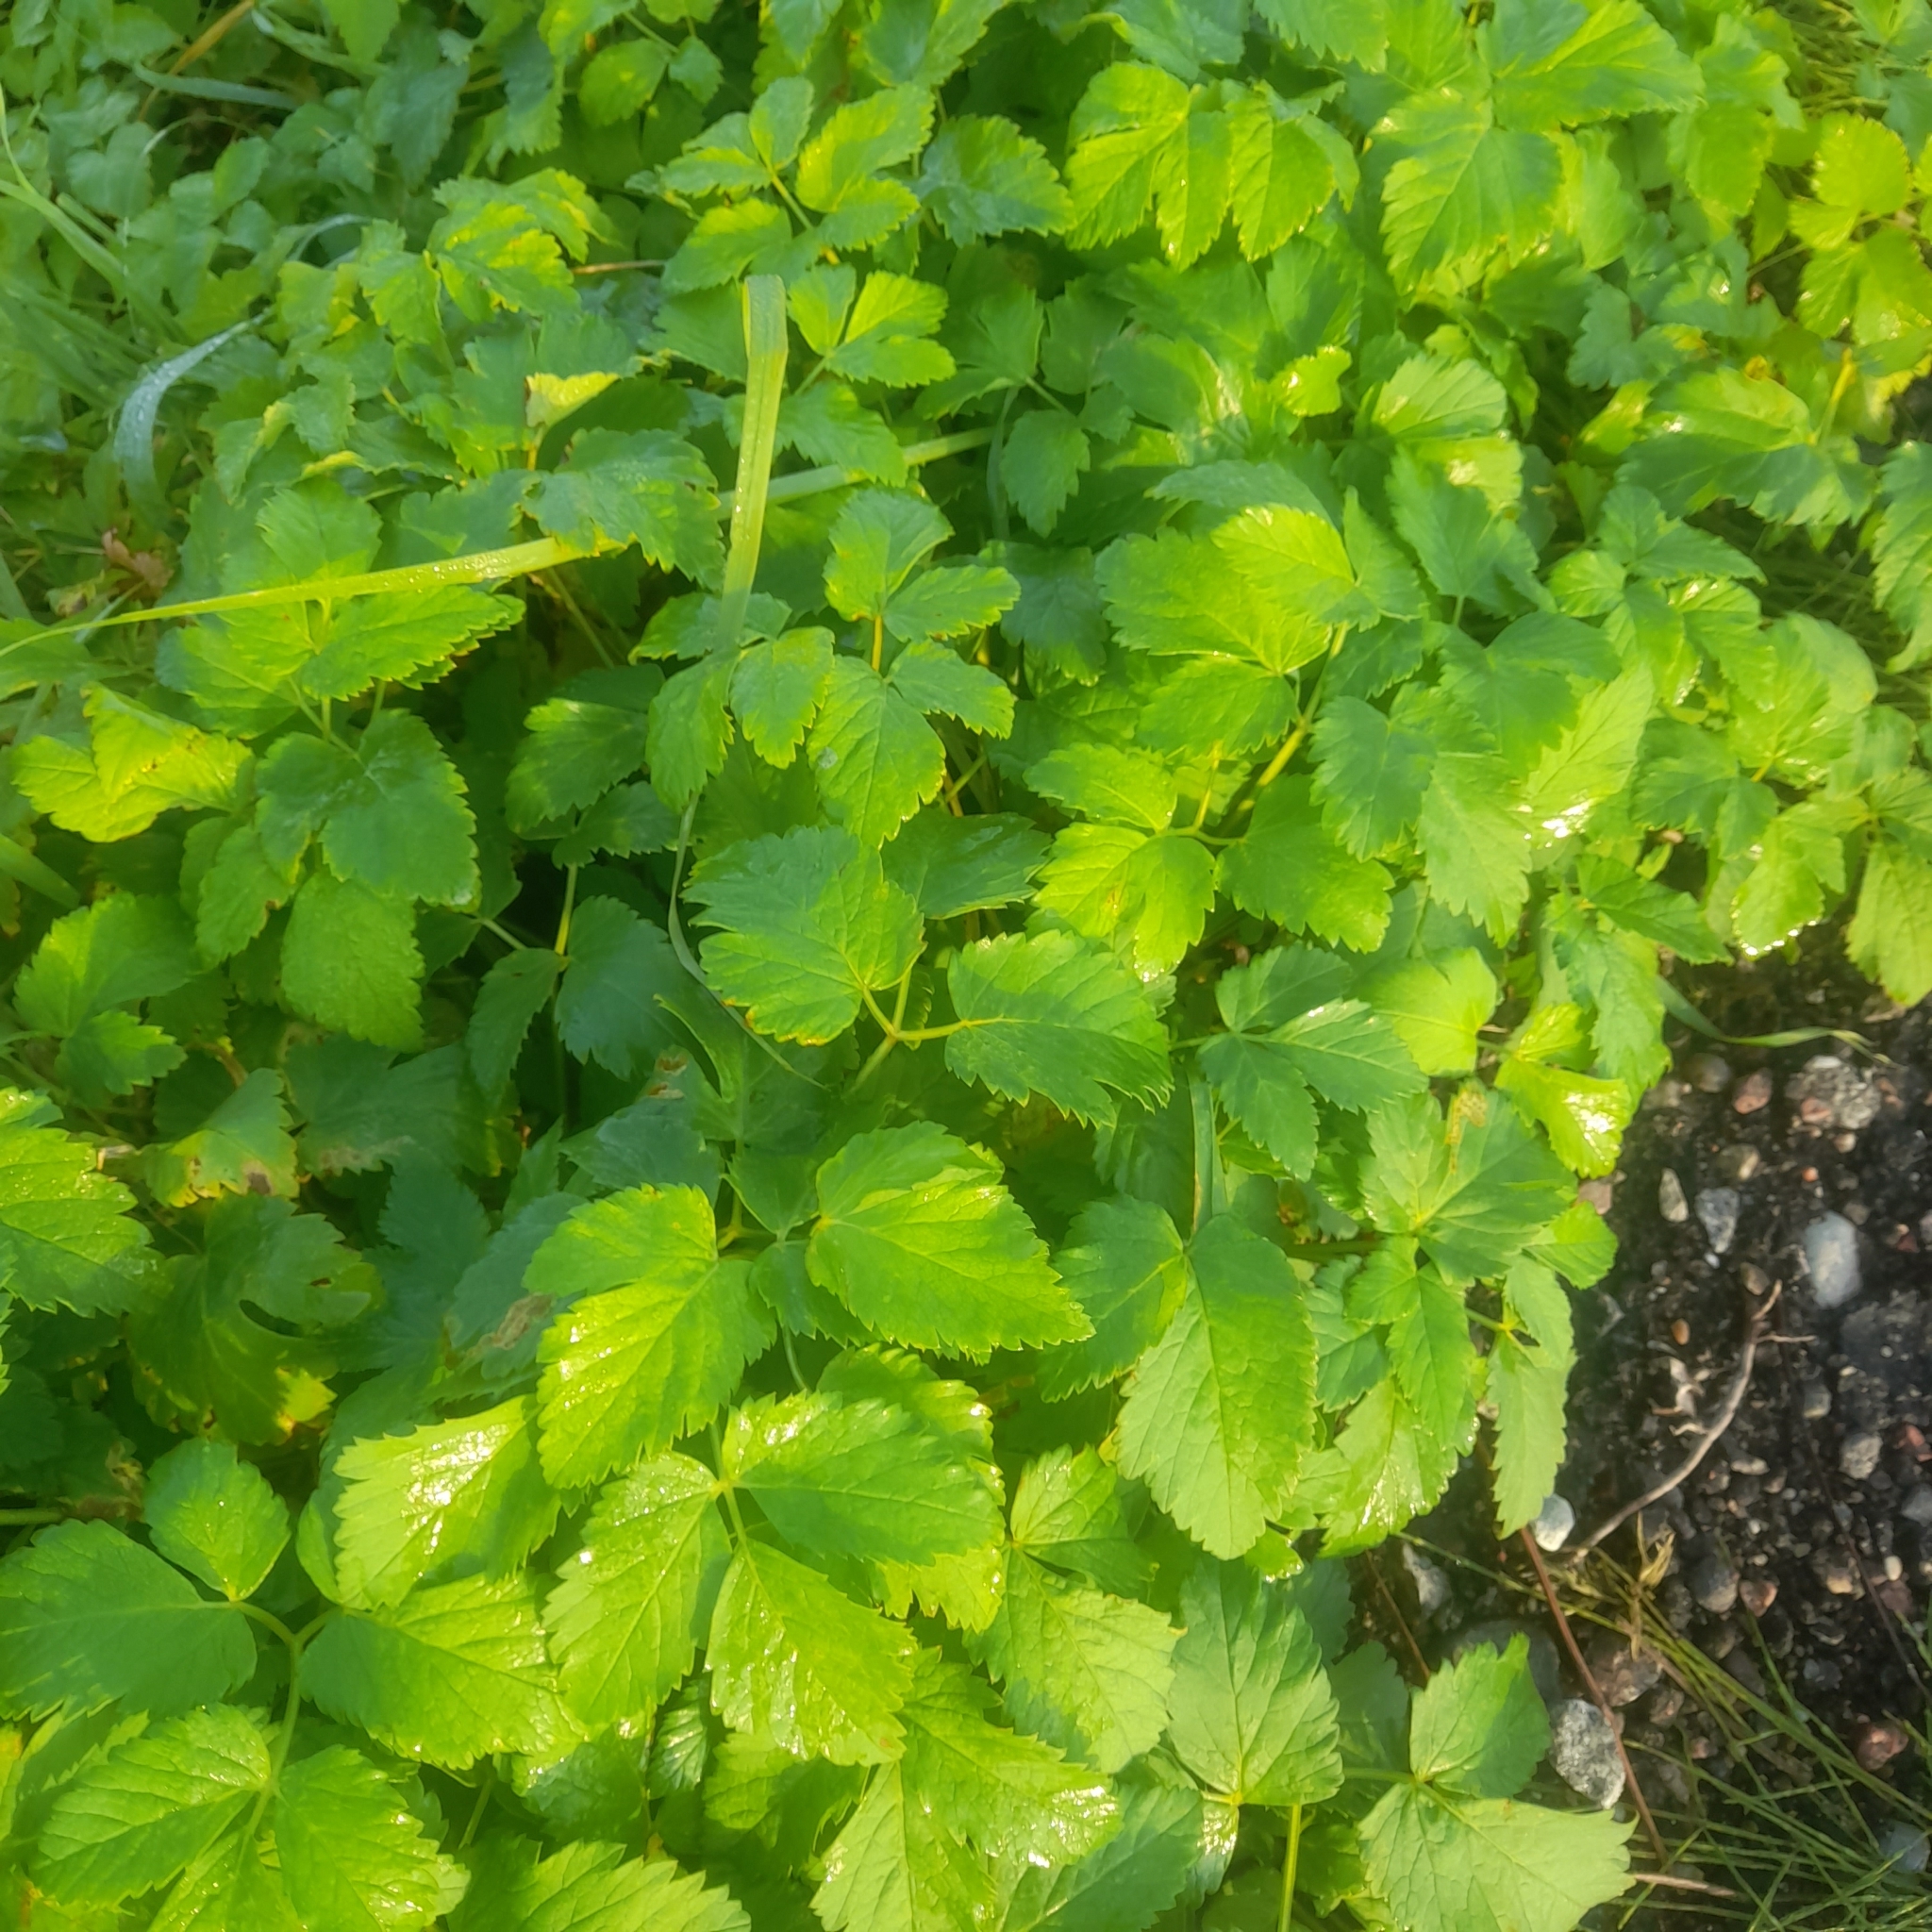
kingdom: Plantae
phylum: Tracheophyta
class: Magnoliopsida
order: Apiales
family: Apiaceae
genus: Aegopodium
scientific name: Aegopodium podagraria
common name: Ground-elder
